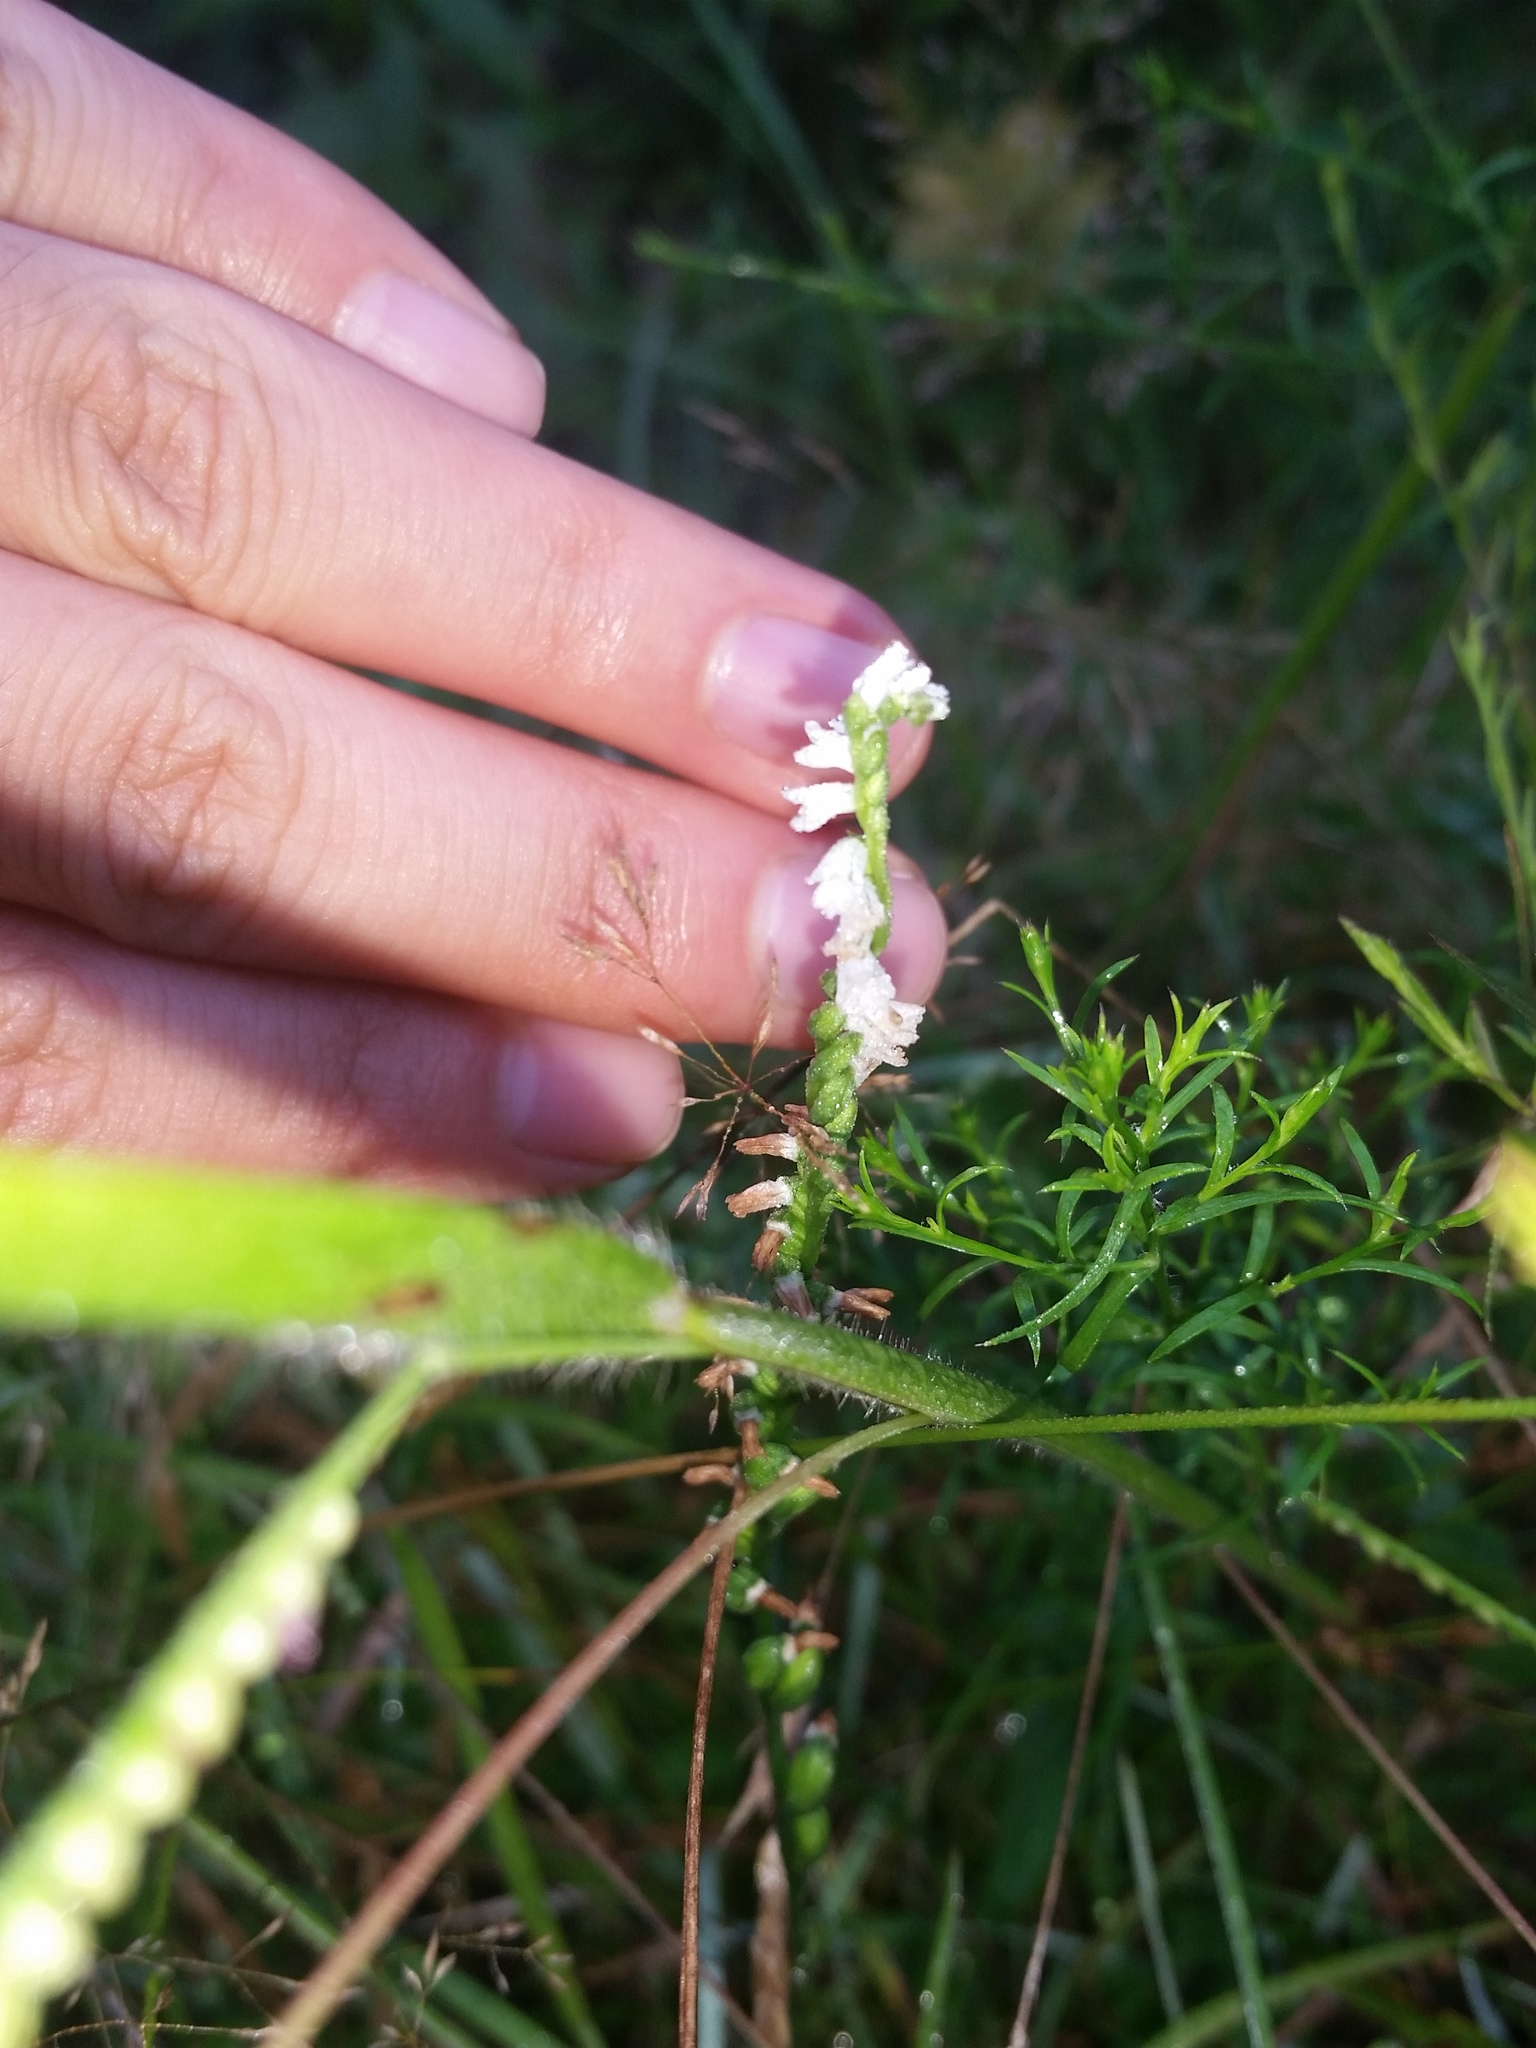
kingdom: Plantae
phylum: Tracheophyta
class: Liliopsida
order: Asparagales
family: Orchidaceae
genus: Spiranthes
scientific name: Spiranthes tuberosa
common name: Little ladies'-tresses
